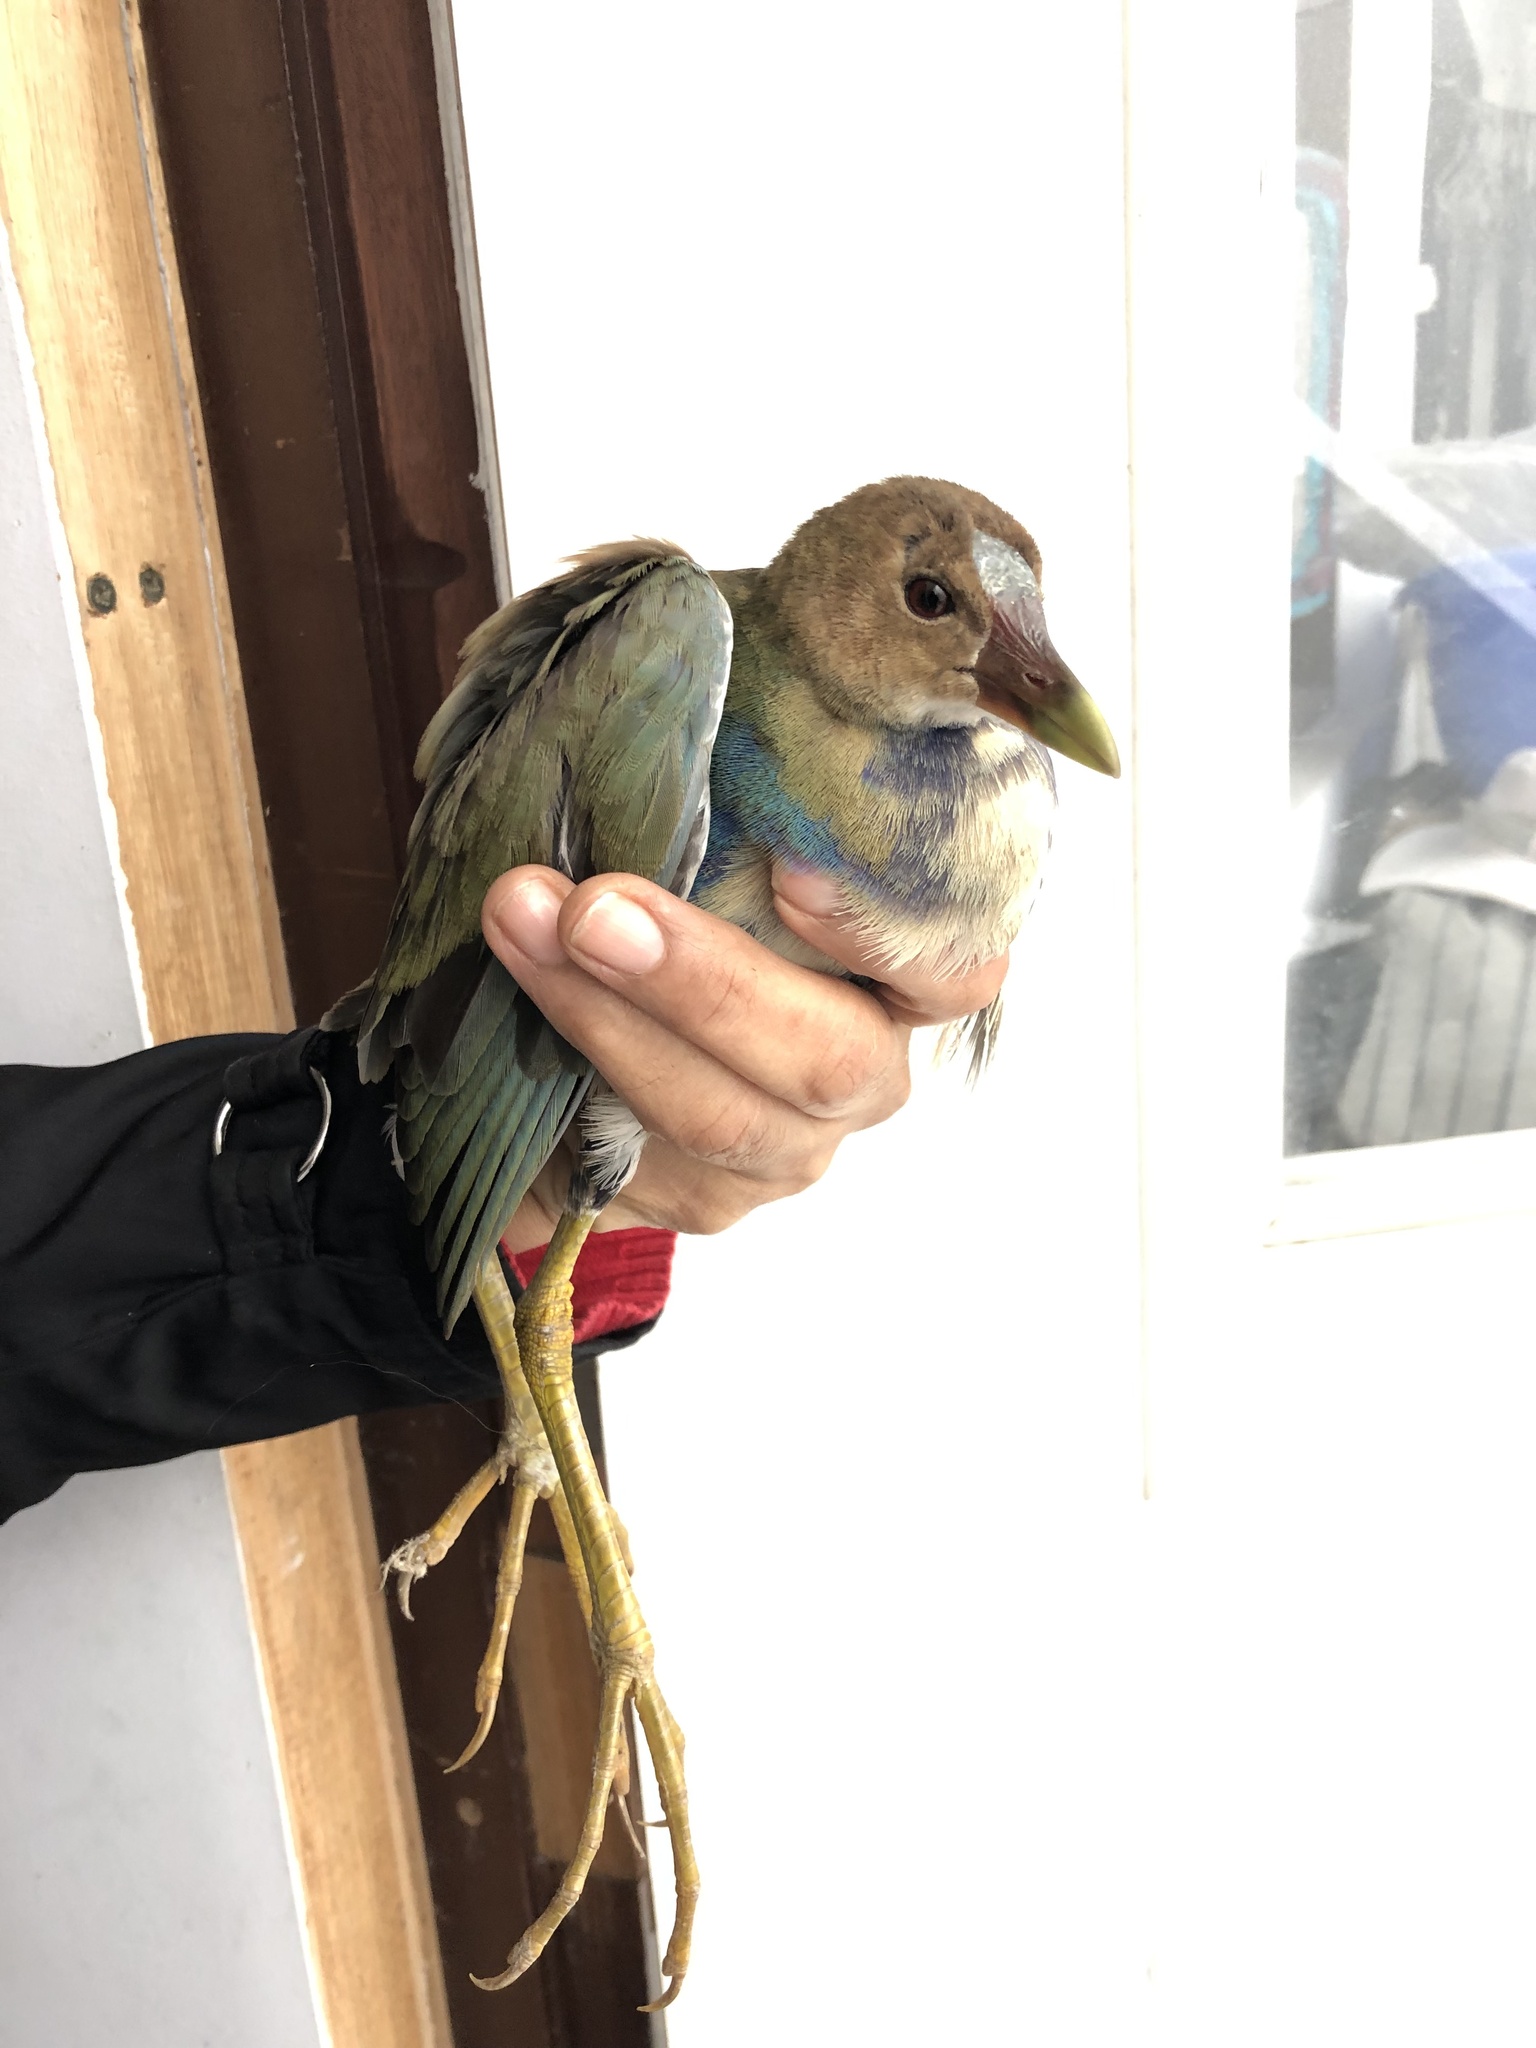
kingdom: Animalia
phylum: Chordata
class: Aves
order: Gruiformes
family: Rallidae
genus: Porphyrio
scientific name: Porphyrio martinica
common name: Purple gallinule
